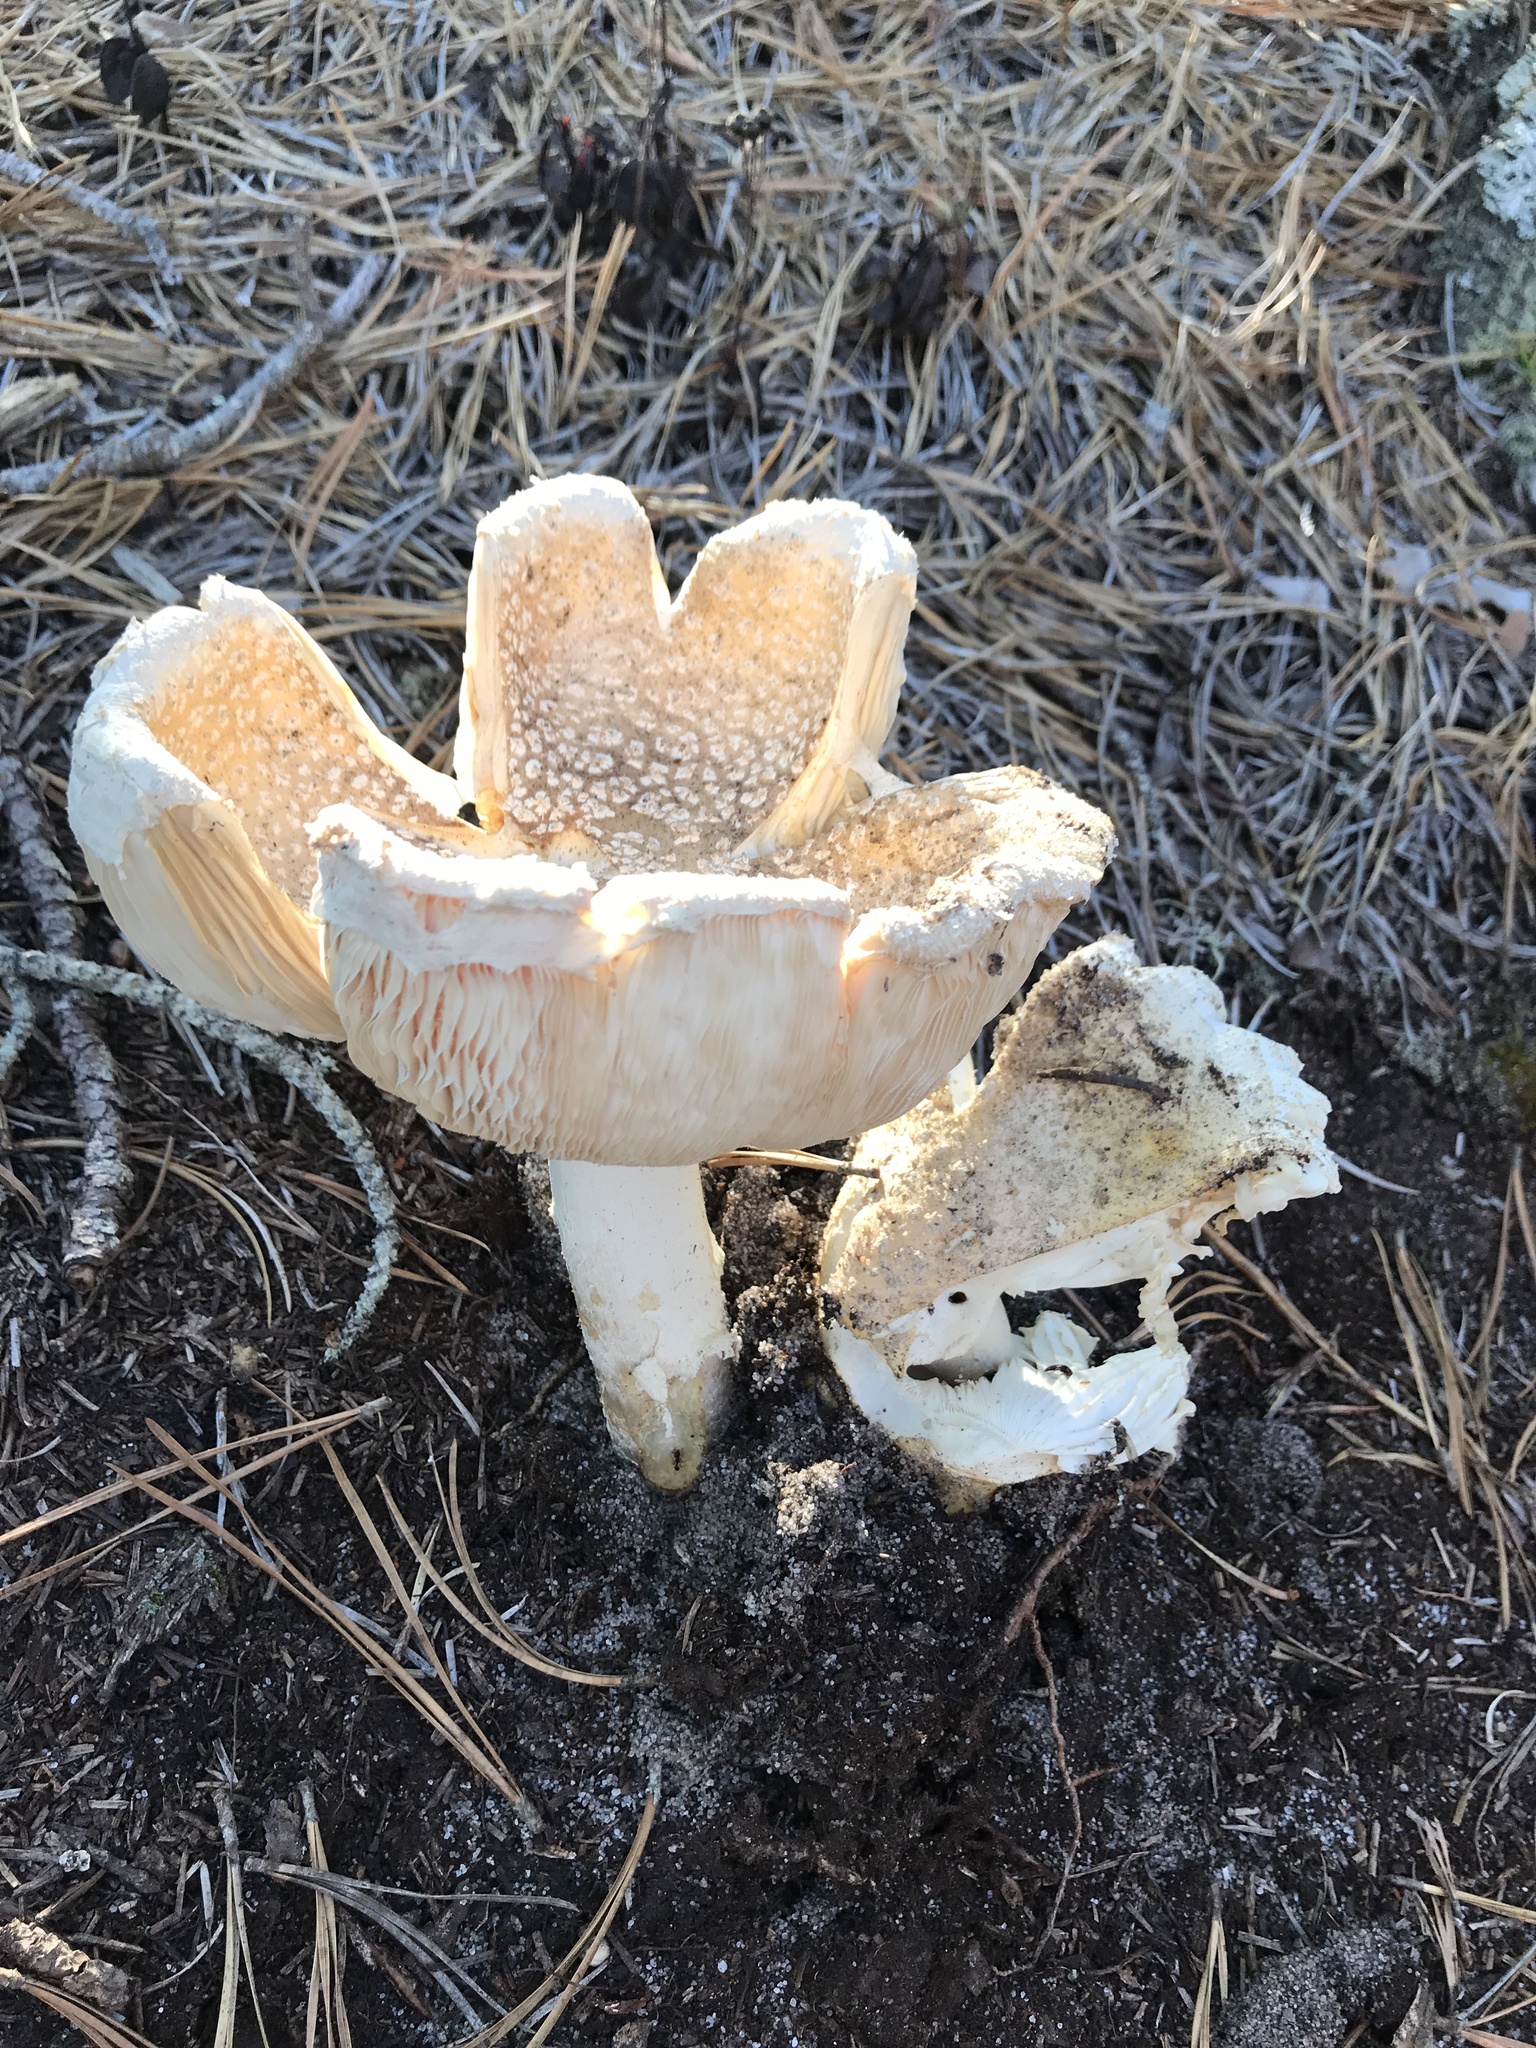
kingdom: Fungi
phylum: Basidiomycota
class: Agaricomycetes
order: Agaricales
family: Amanitaceae
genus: Amanita
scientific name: Amanita muscaria
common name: Fly agaric
